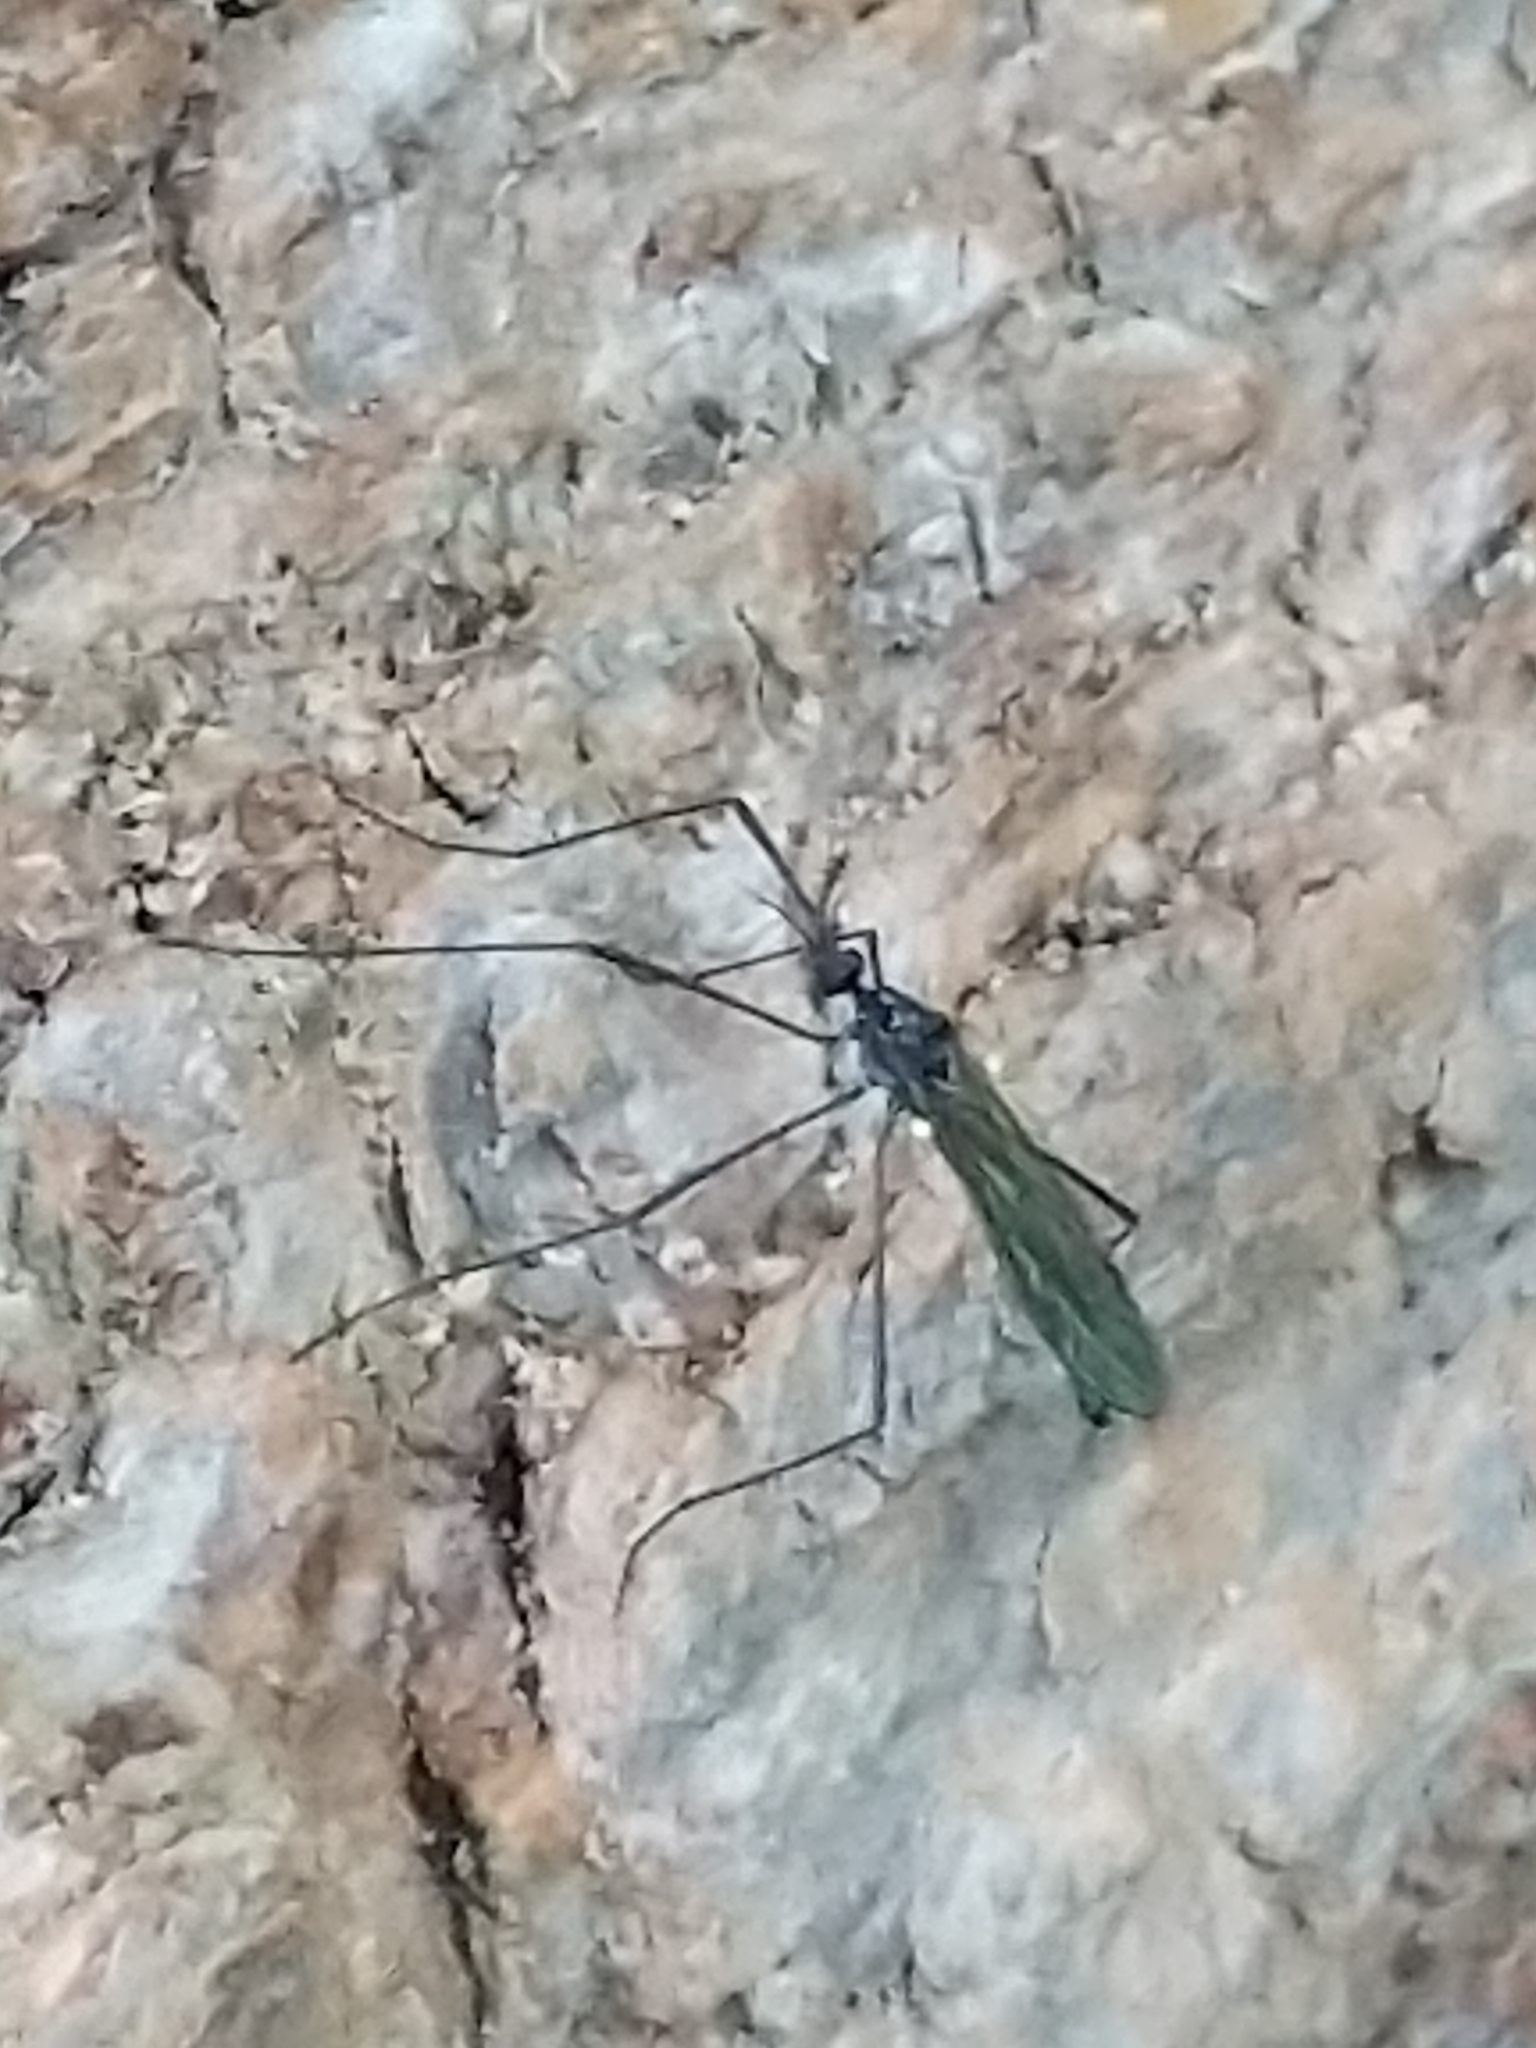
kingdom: Animalia
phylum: Arthropoda
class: Insecta
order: Diptera
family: Limoniidae
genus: Gnophomyia
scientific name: Gnophomyia tristissima
